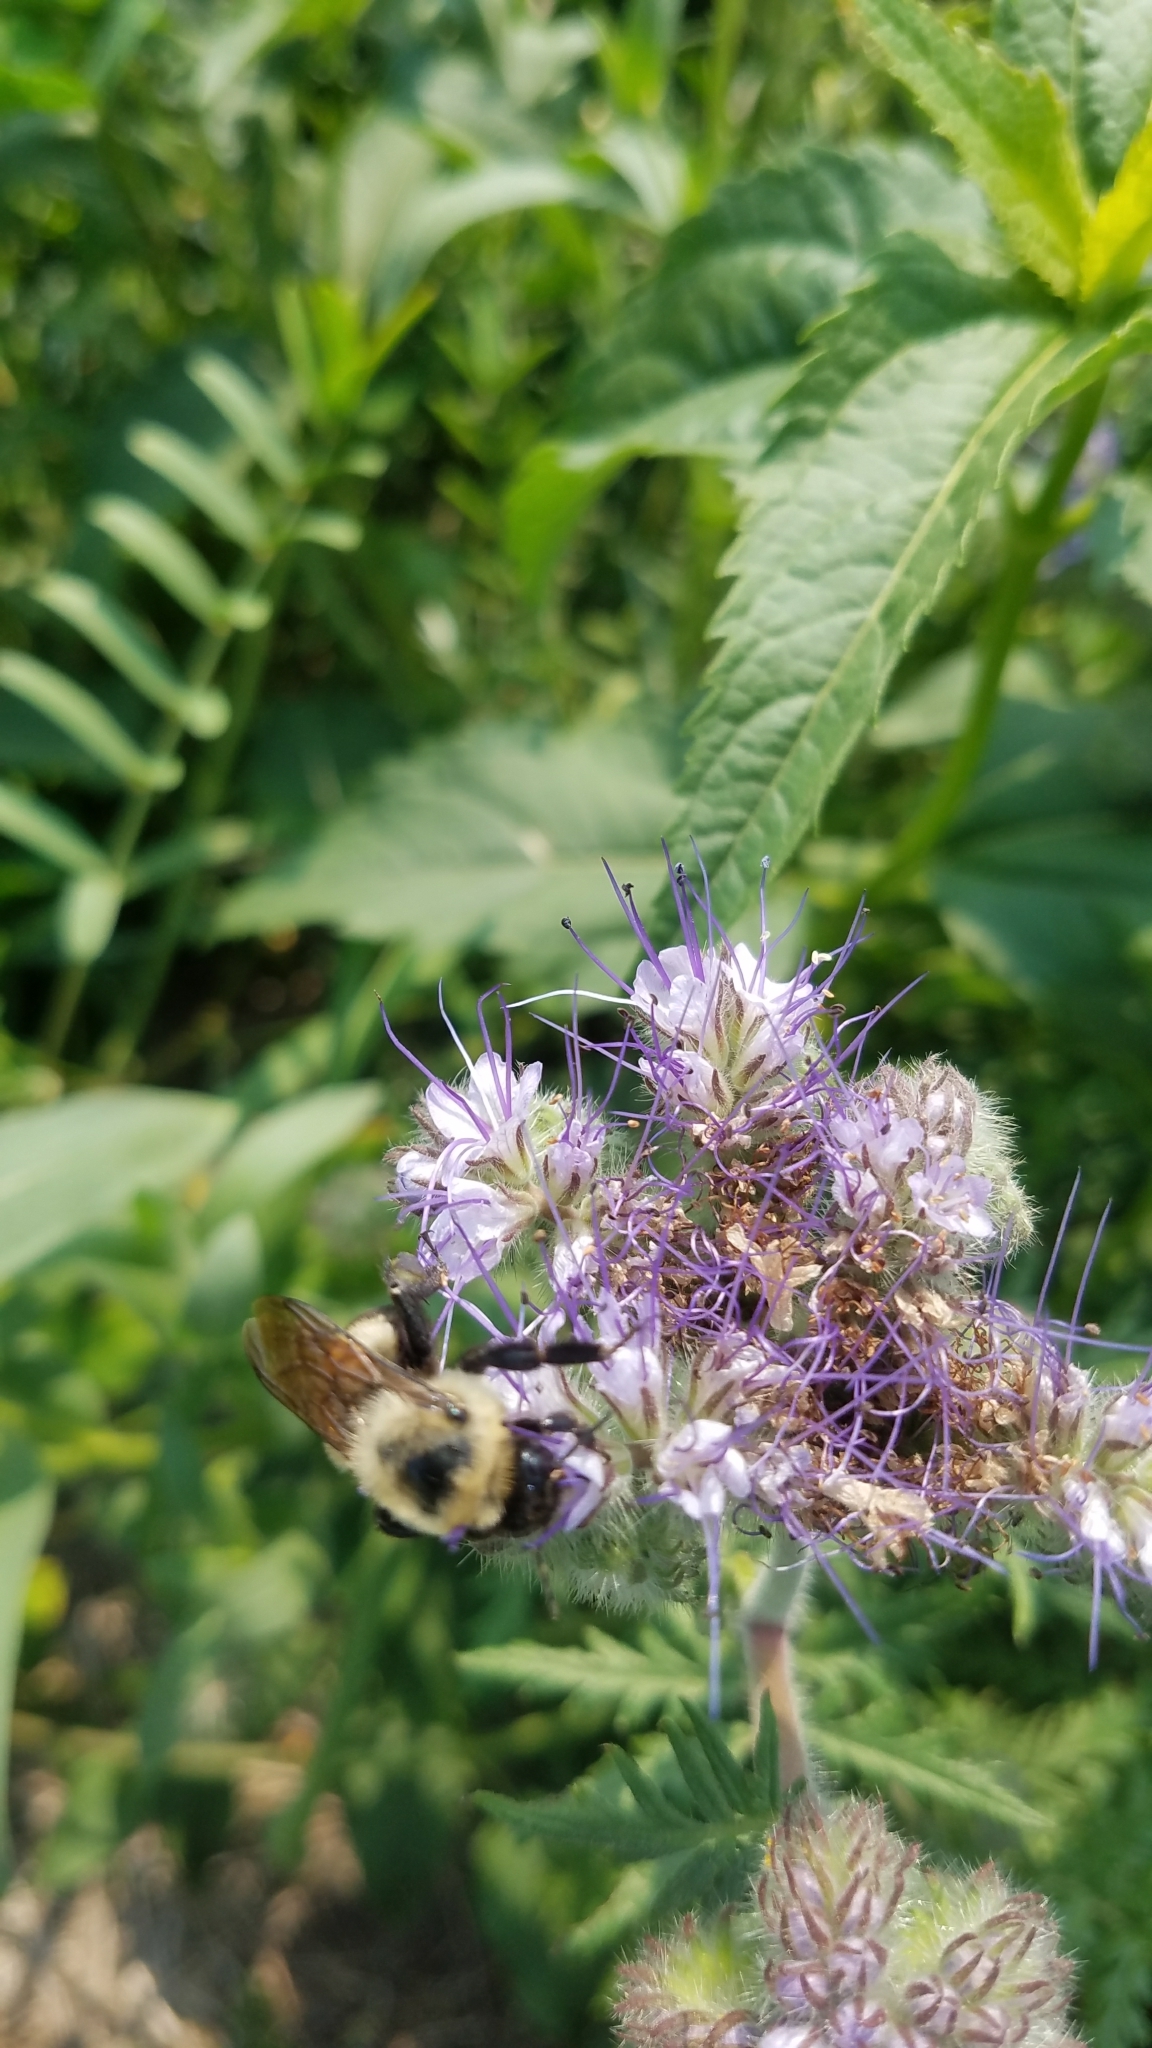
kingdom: Plantae
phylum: Tracheophyta
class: Magnoliopsida
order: Boraginales
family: Hydrophyllaceae
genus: Phacelia
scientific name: Phacelia tanacetifolia
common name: Phacelia
